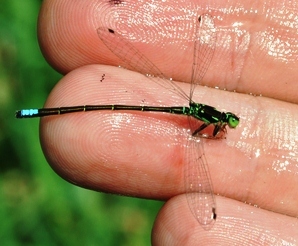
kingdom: Animalia
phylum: Arthropoda
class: Insecta
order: Odonata
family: Coenagrionidae
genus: Ischnura
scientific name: Ischnura verticalis
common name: Eastern forktail
